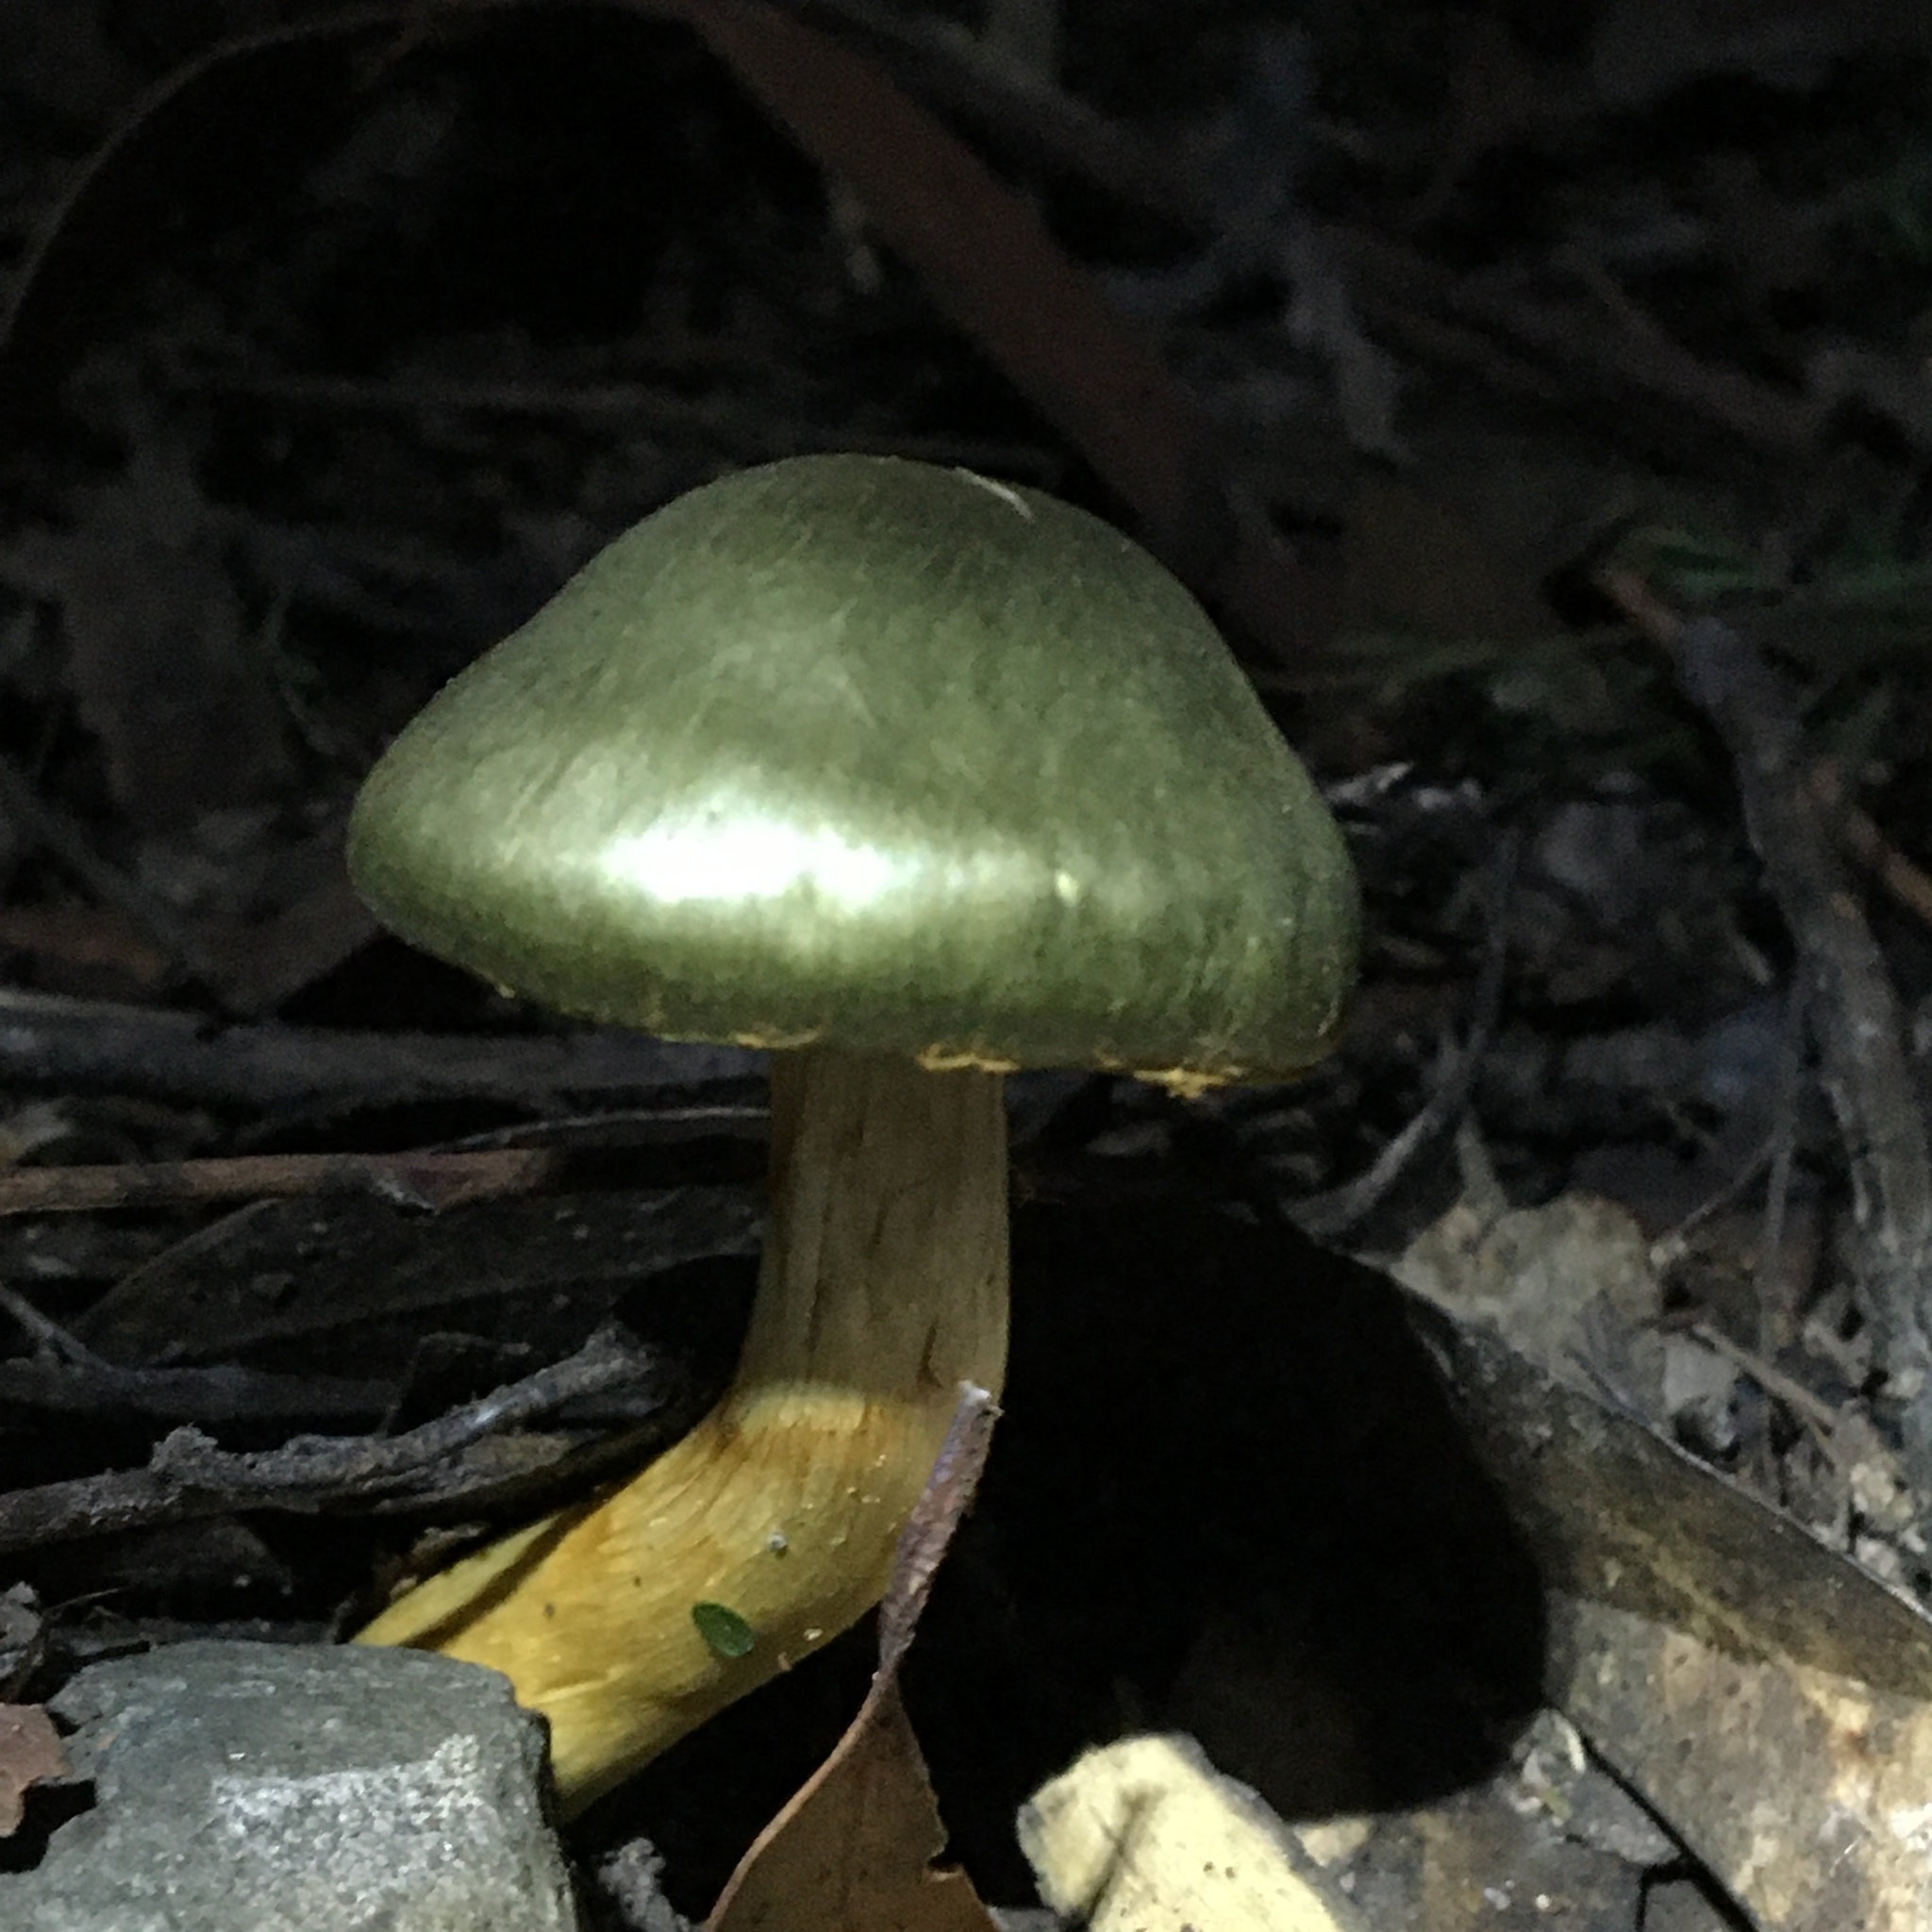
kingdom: Fungi
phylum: Basidiomycota
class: Agaricomycetes
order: Agaricales
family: Cortinariaceae
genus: Cortinarius
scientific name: Cortinarius austrovenetus
